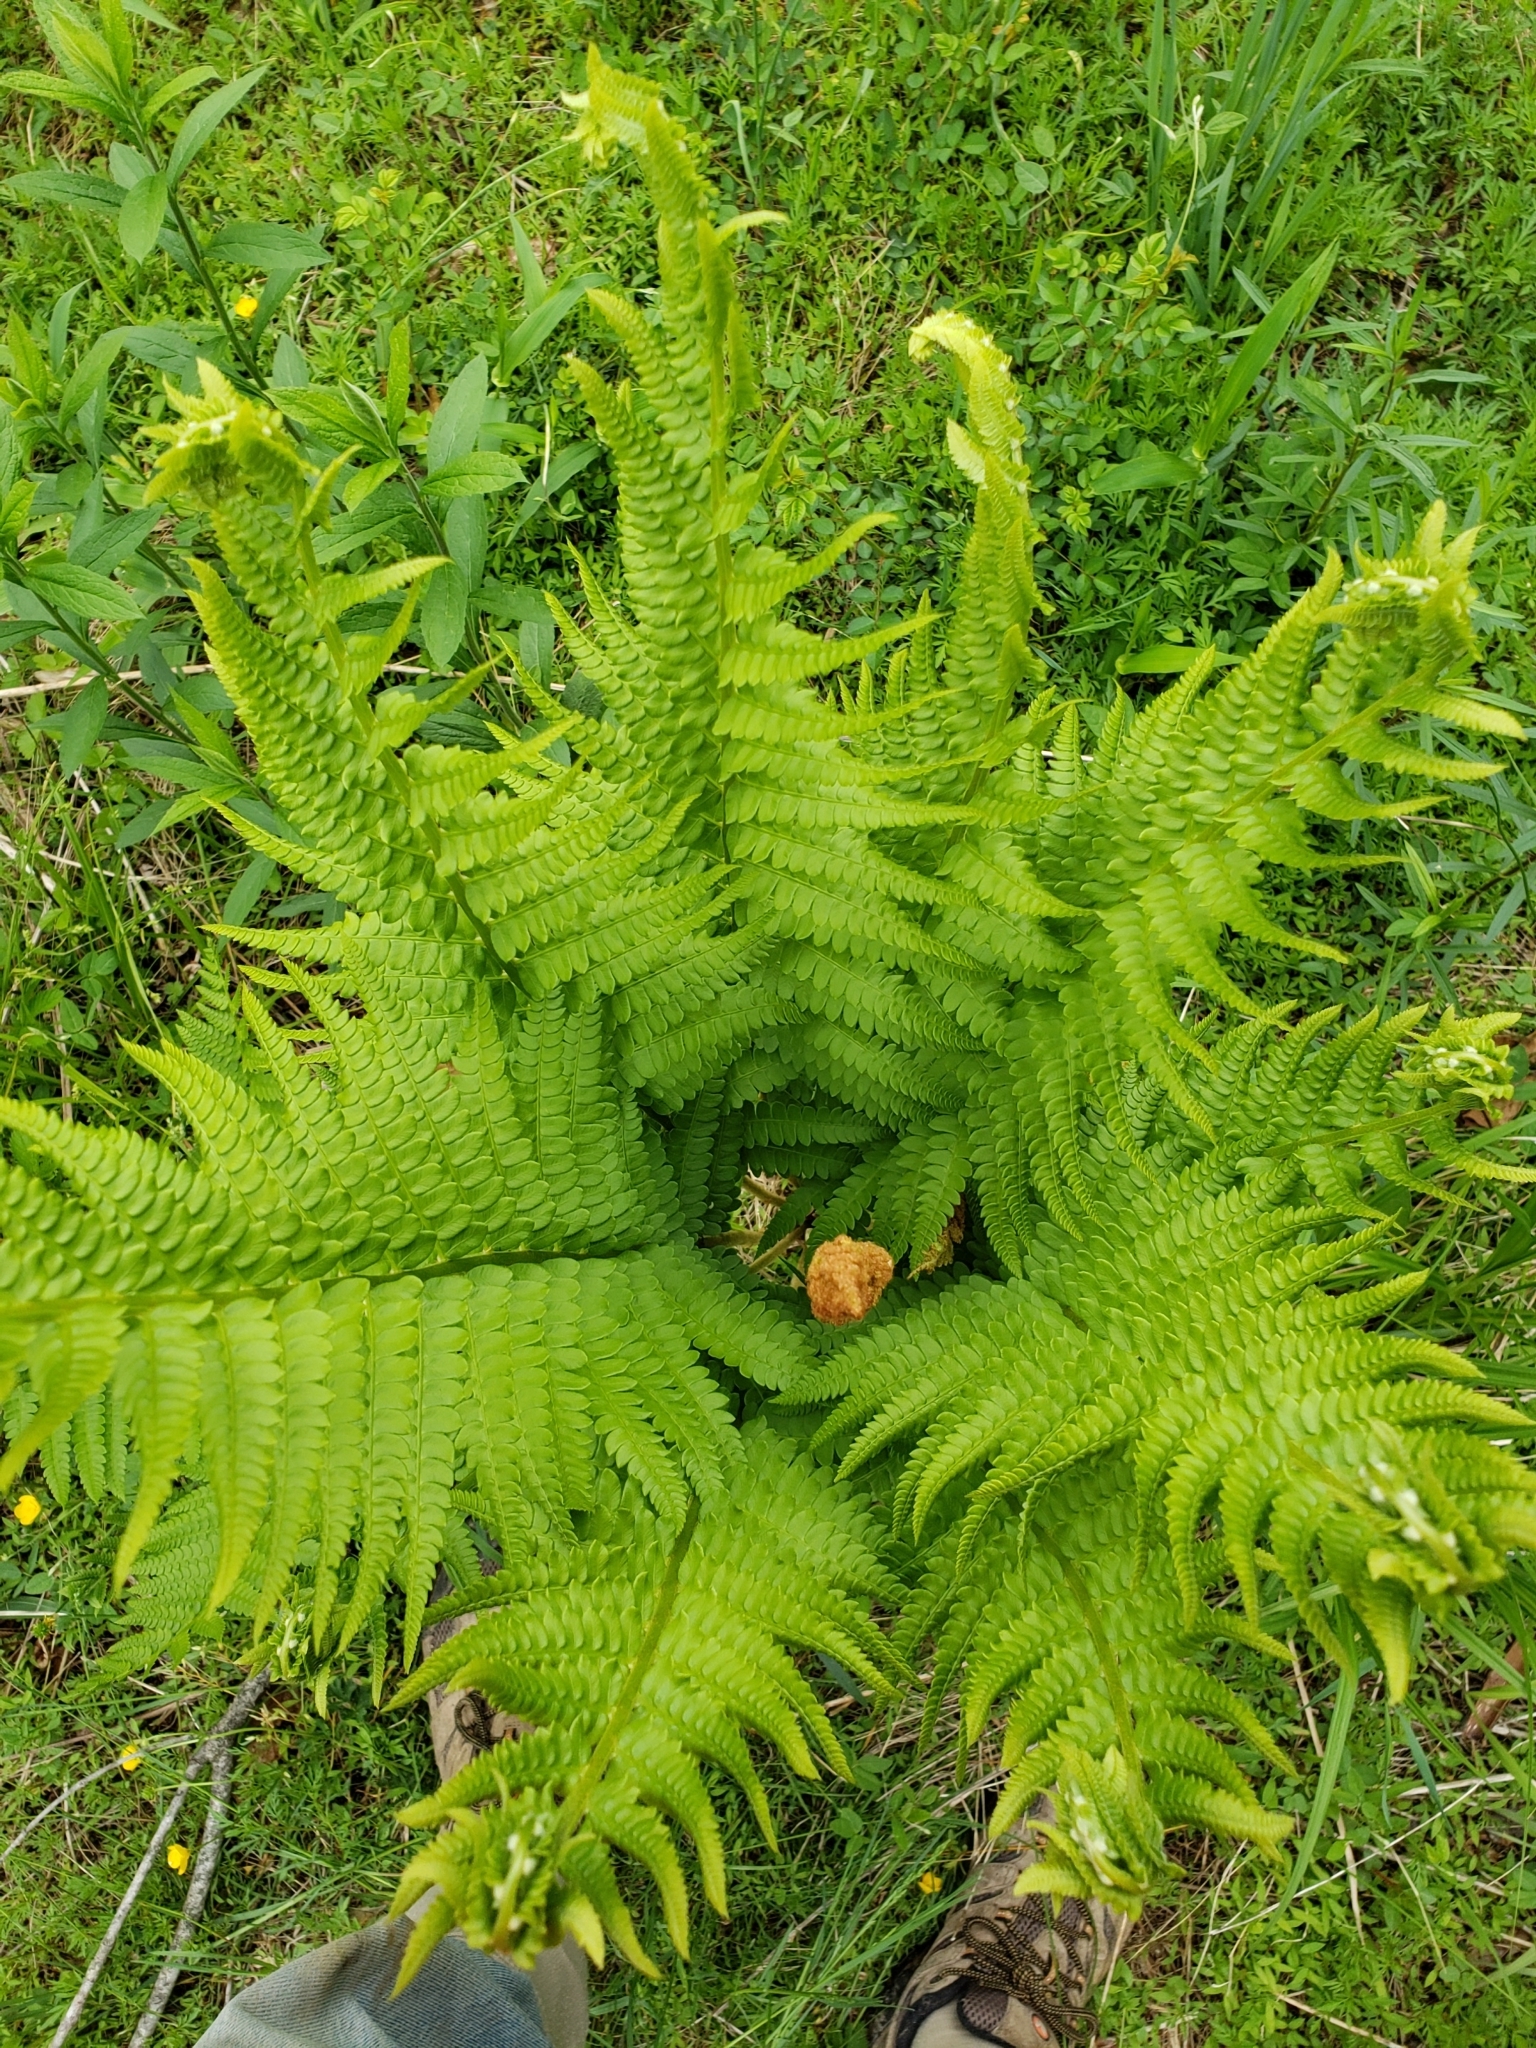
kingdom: Plantae
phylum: Tracheophyta
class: Polypodiopsida
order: Osmundales
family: Osmundaceae
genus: Osmundastrum
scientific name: Osmundastrum cinnamomeum
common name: Cinnamon fern
